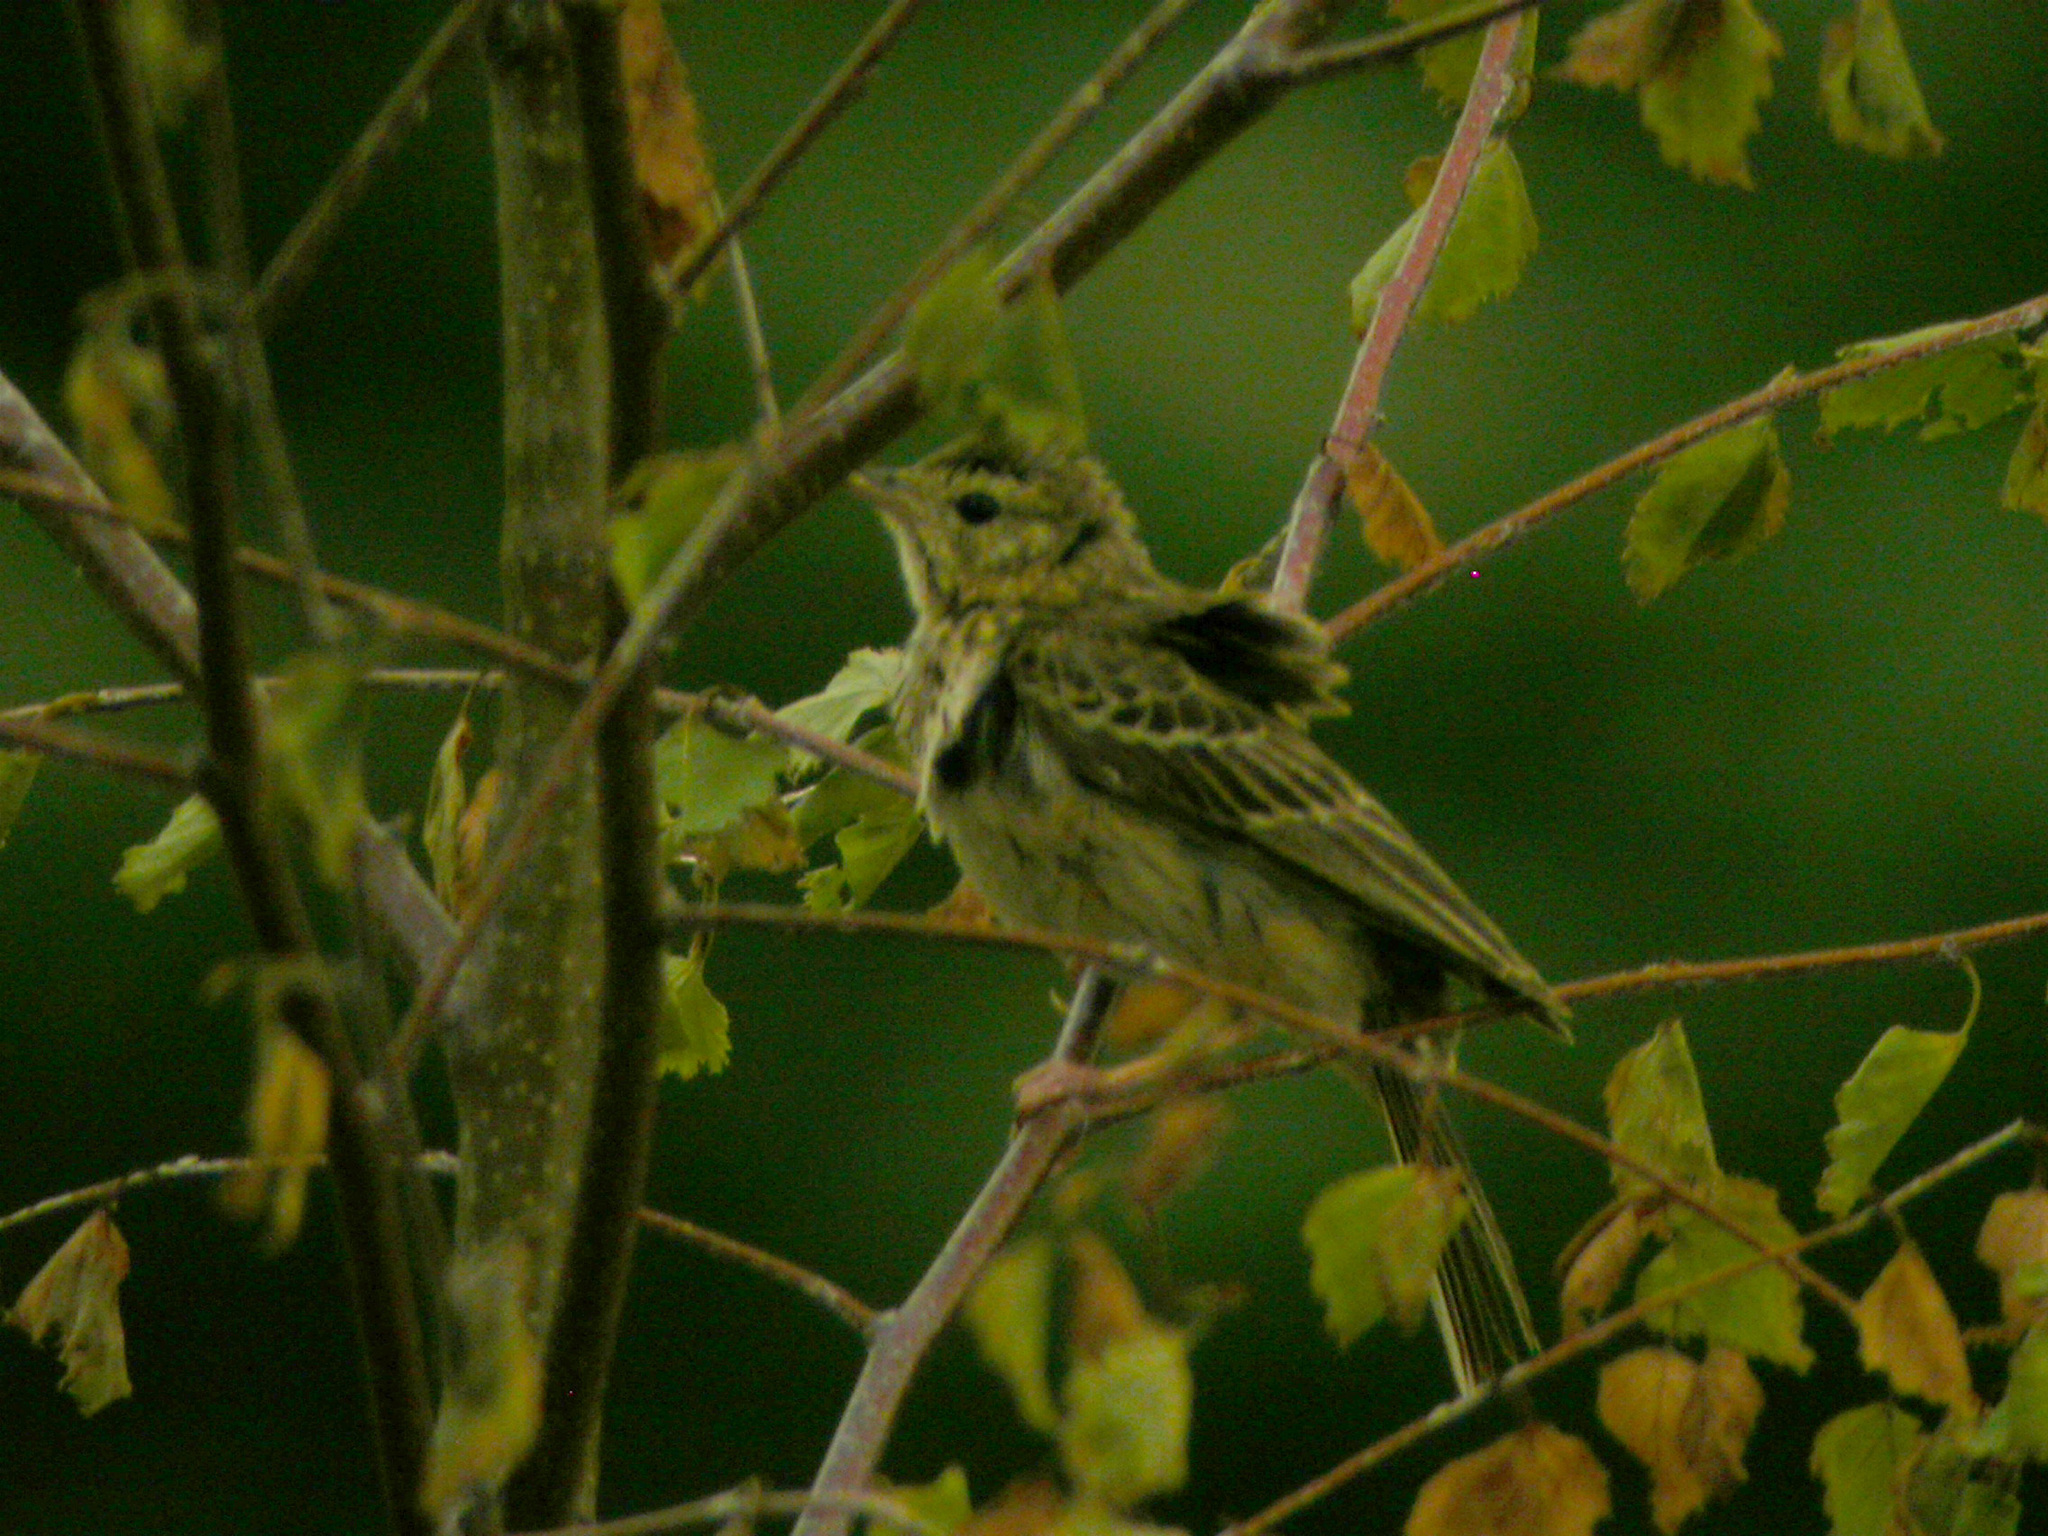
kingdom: Animalia
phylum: Chordata
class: Aves
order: Passeriformes
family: Motacillidae
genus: Anthus
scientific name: Anthus trivialis
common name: Tree pipit
